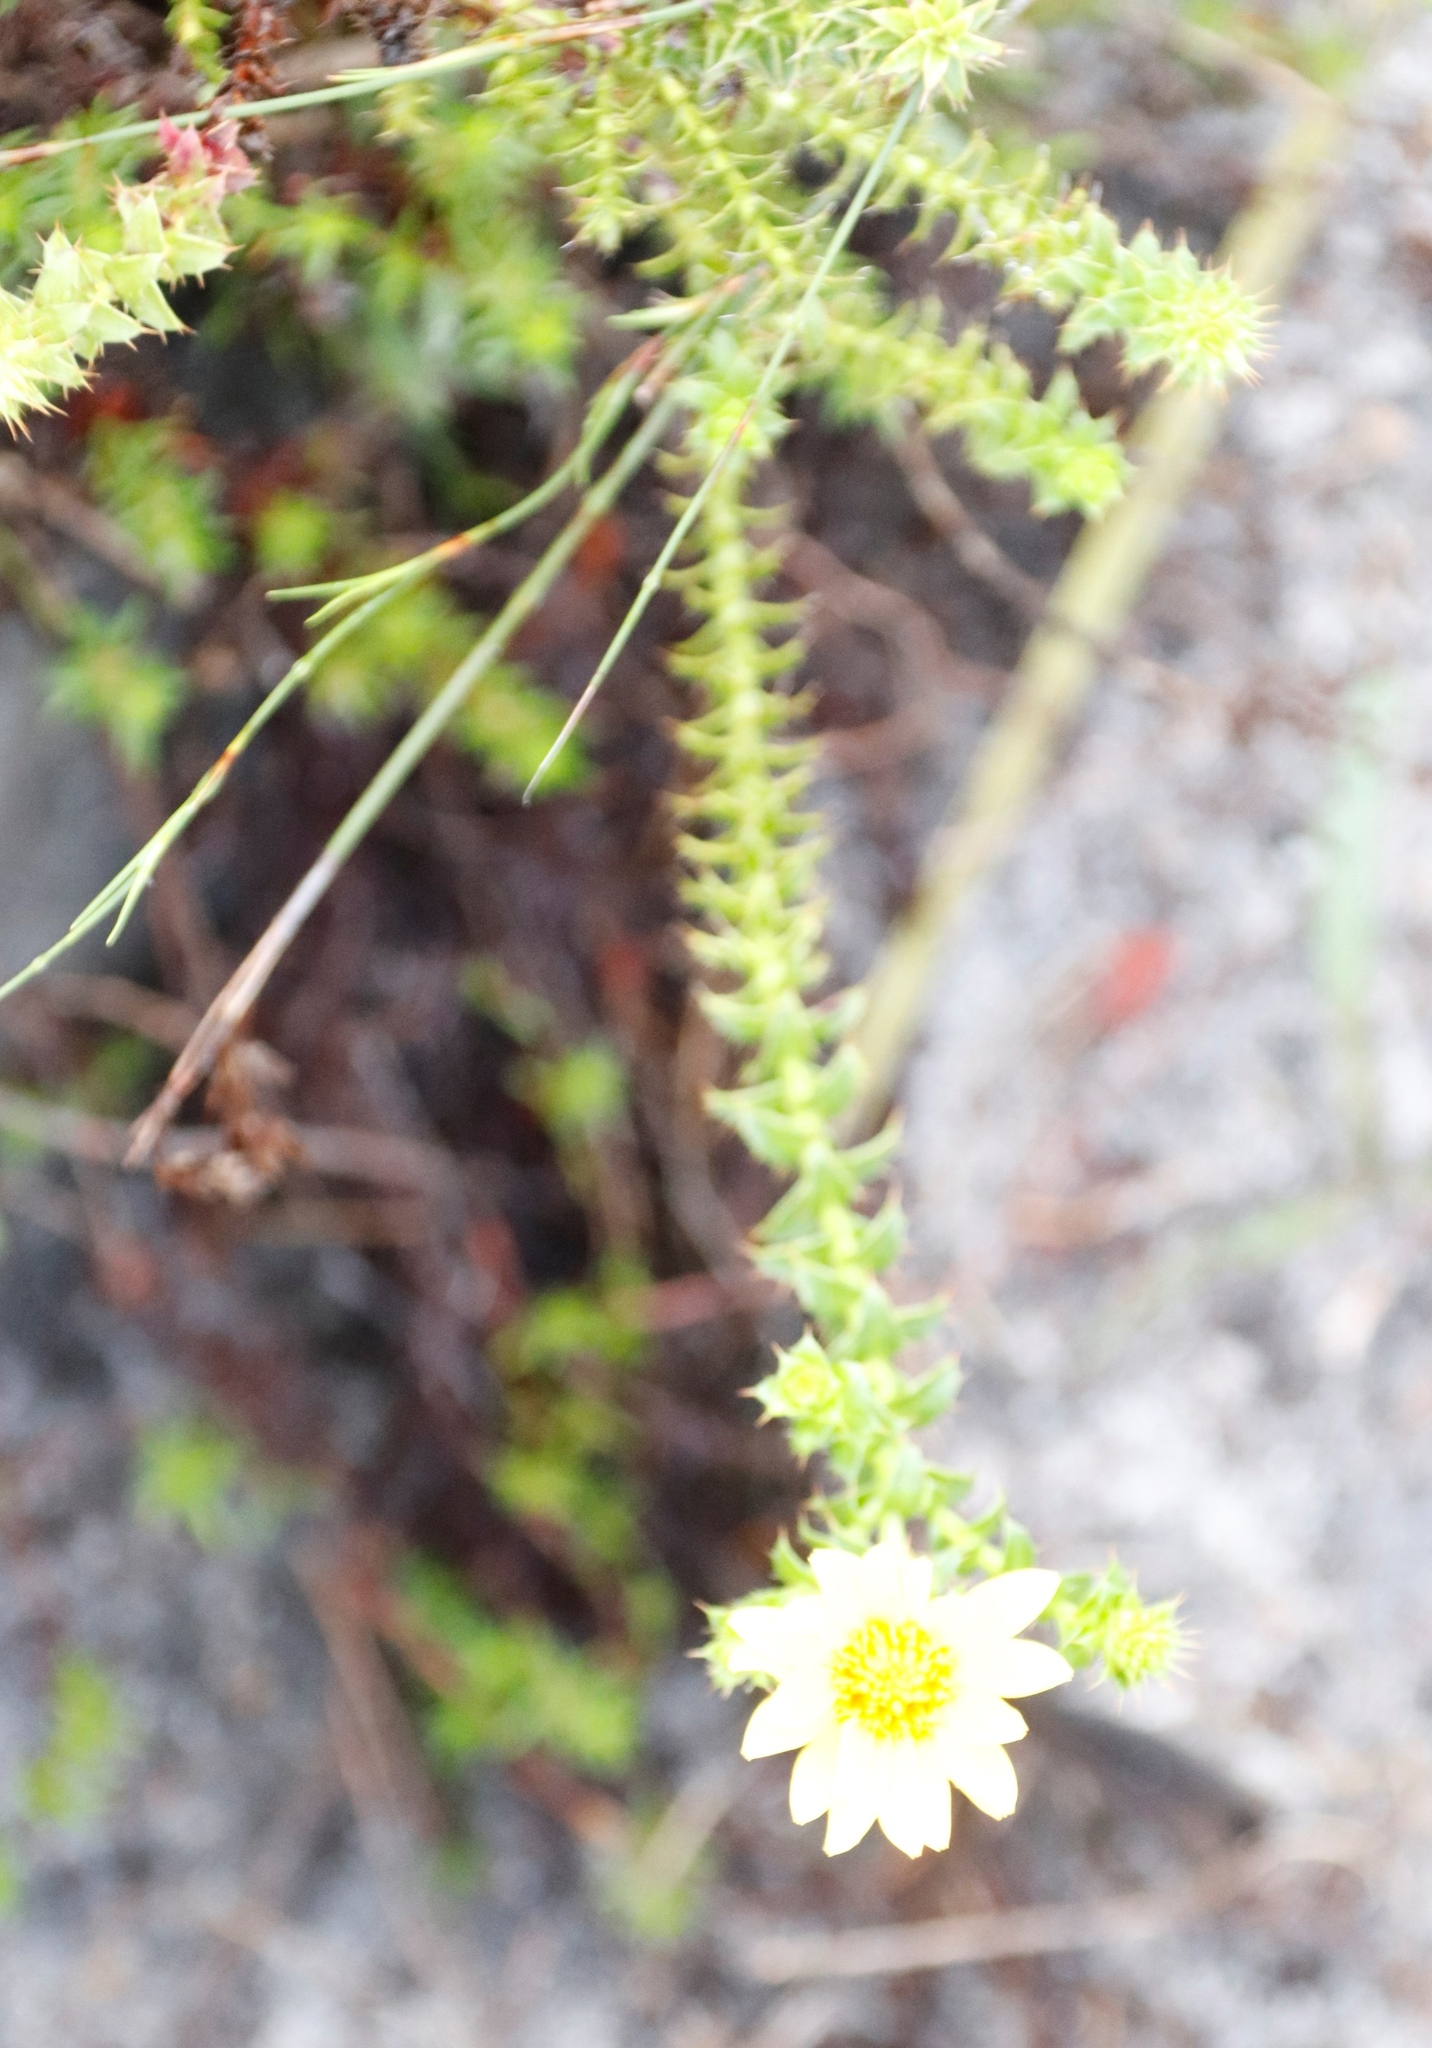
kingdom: Plantae
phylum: Tracheophyta
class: Magnoliopsida
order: Asterales
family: Asteraceae
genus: Cullumia
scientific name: Cullumia setosa
